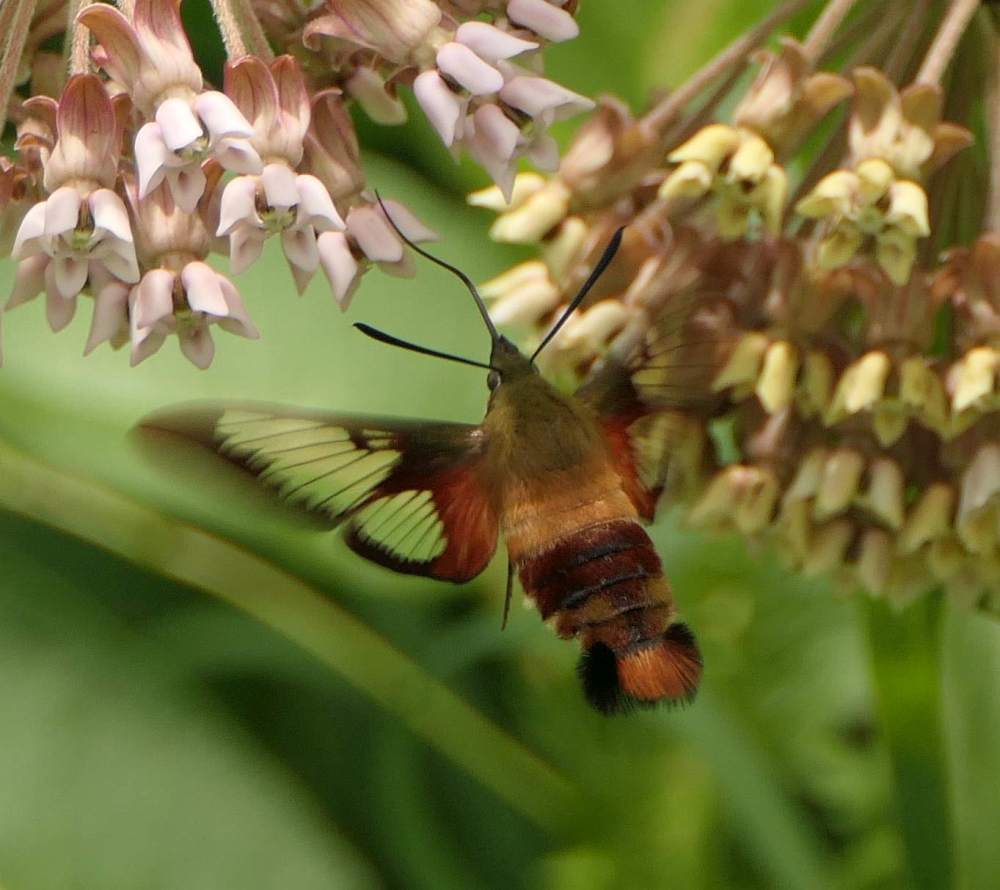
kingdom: Animalia
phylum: Arthropoda
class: Insecta
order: Lepidoptera
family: Sphingidae
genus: Hemaris
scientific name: Hemaris thysbe
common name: Common clear-wing
